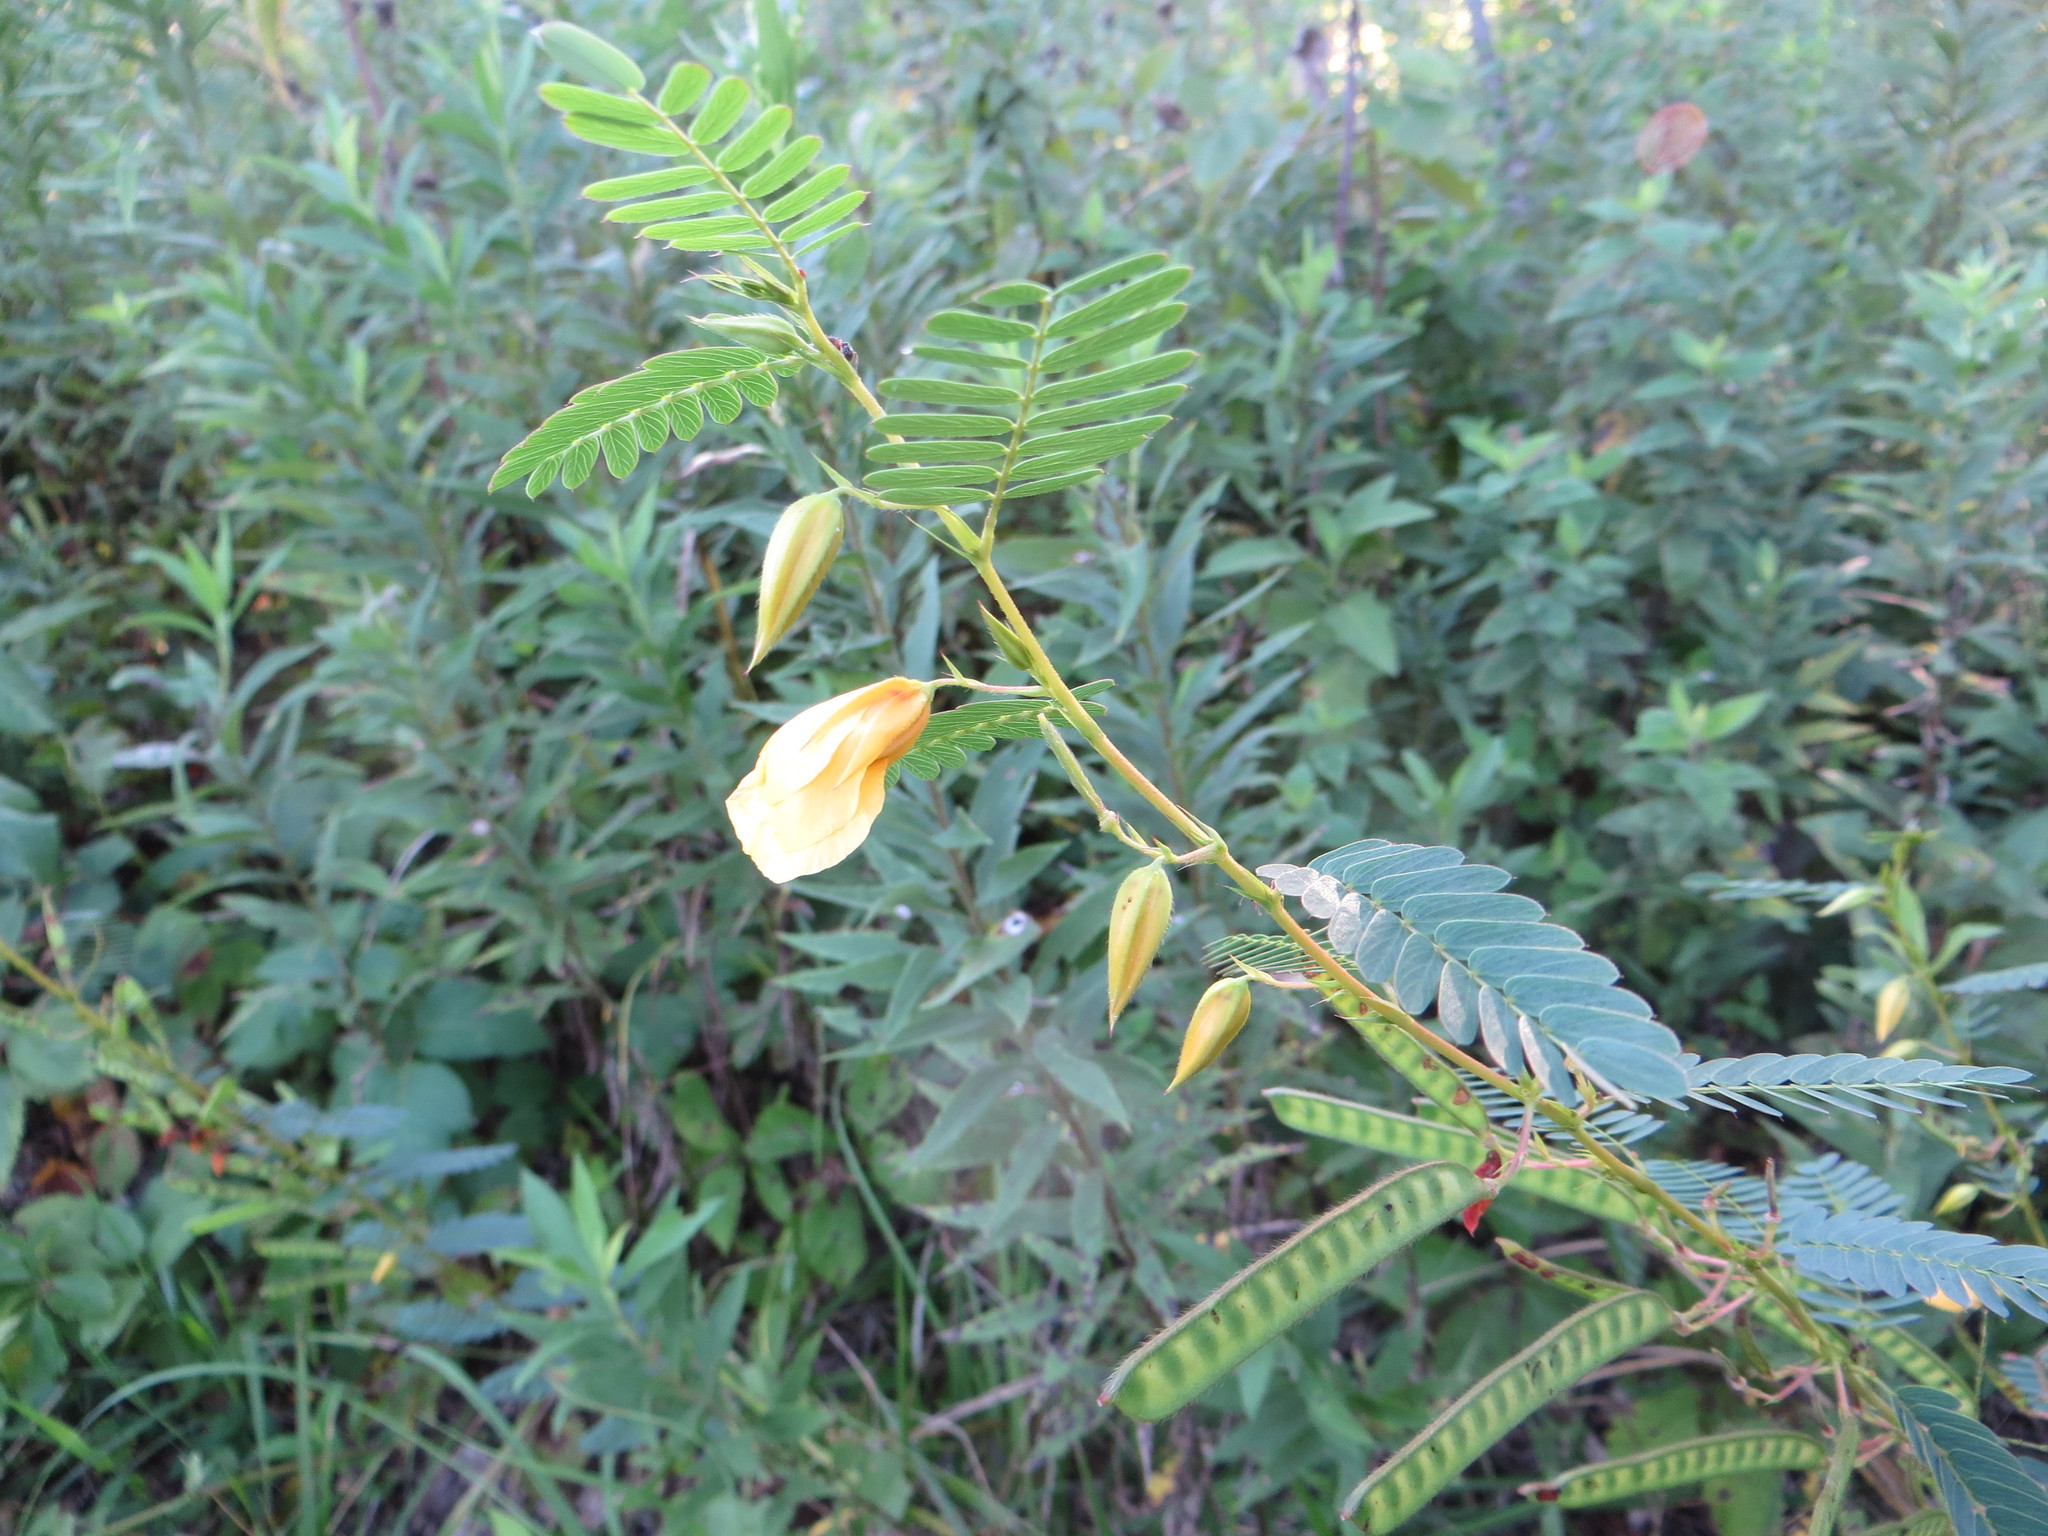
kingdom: Plantae
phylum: Tracheophyta
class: Magnoliopsida
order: Fabales
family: Fabaceae
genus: Chamaecrista
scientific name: Chamaecrista fasciculata
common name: Golden cassia
